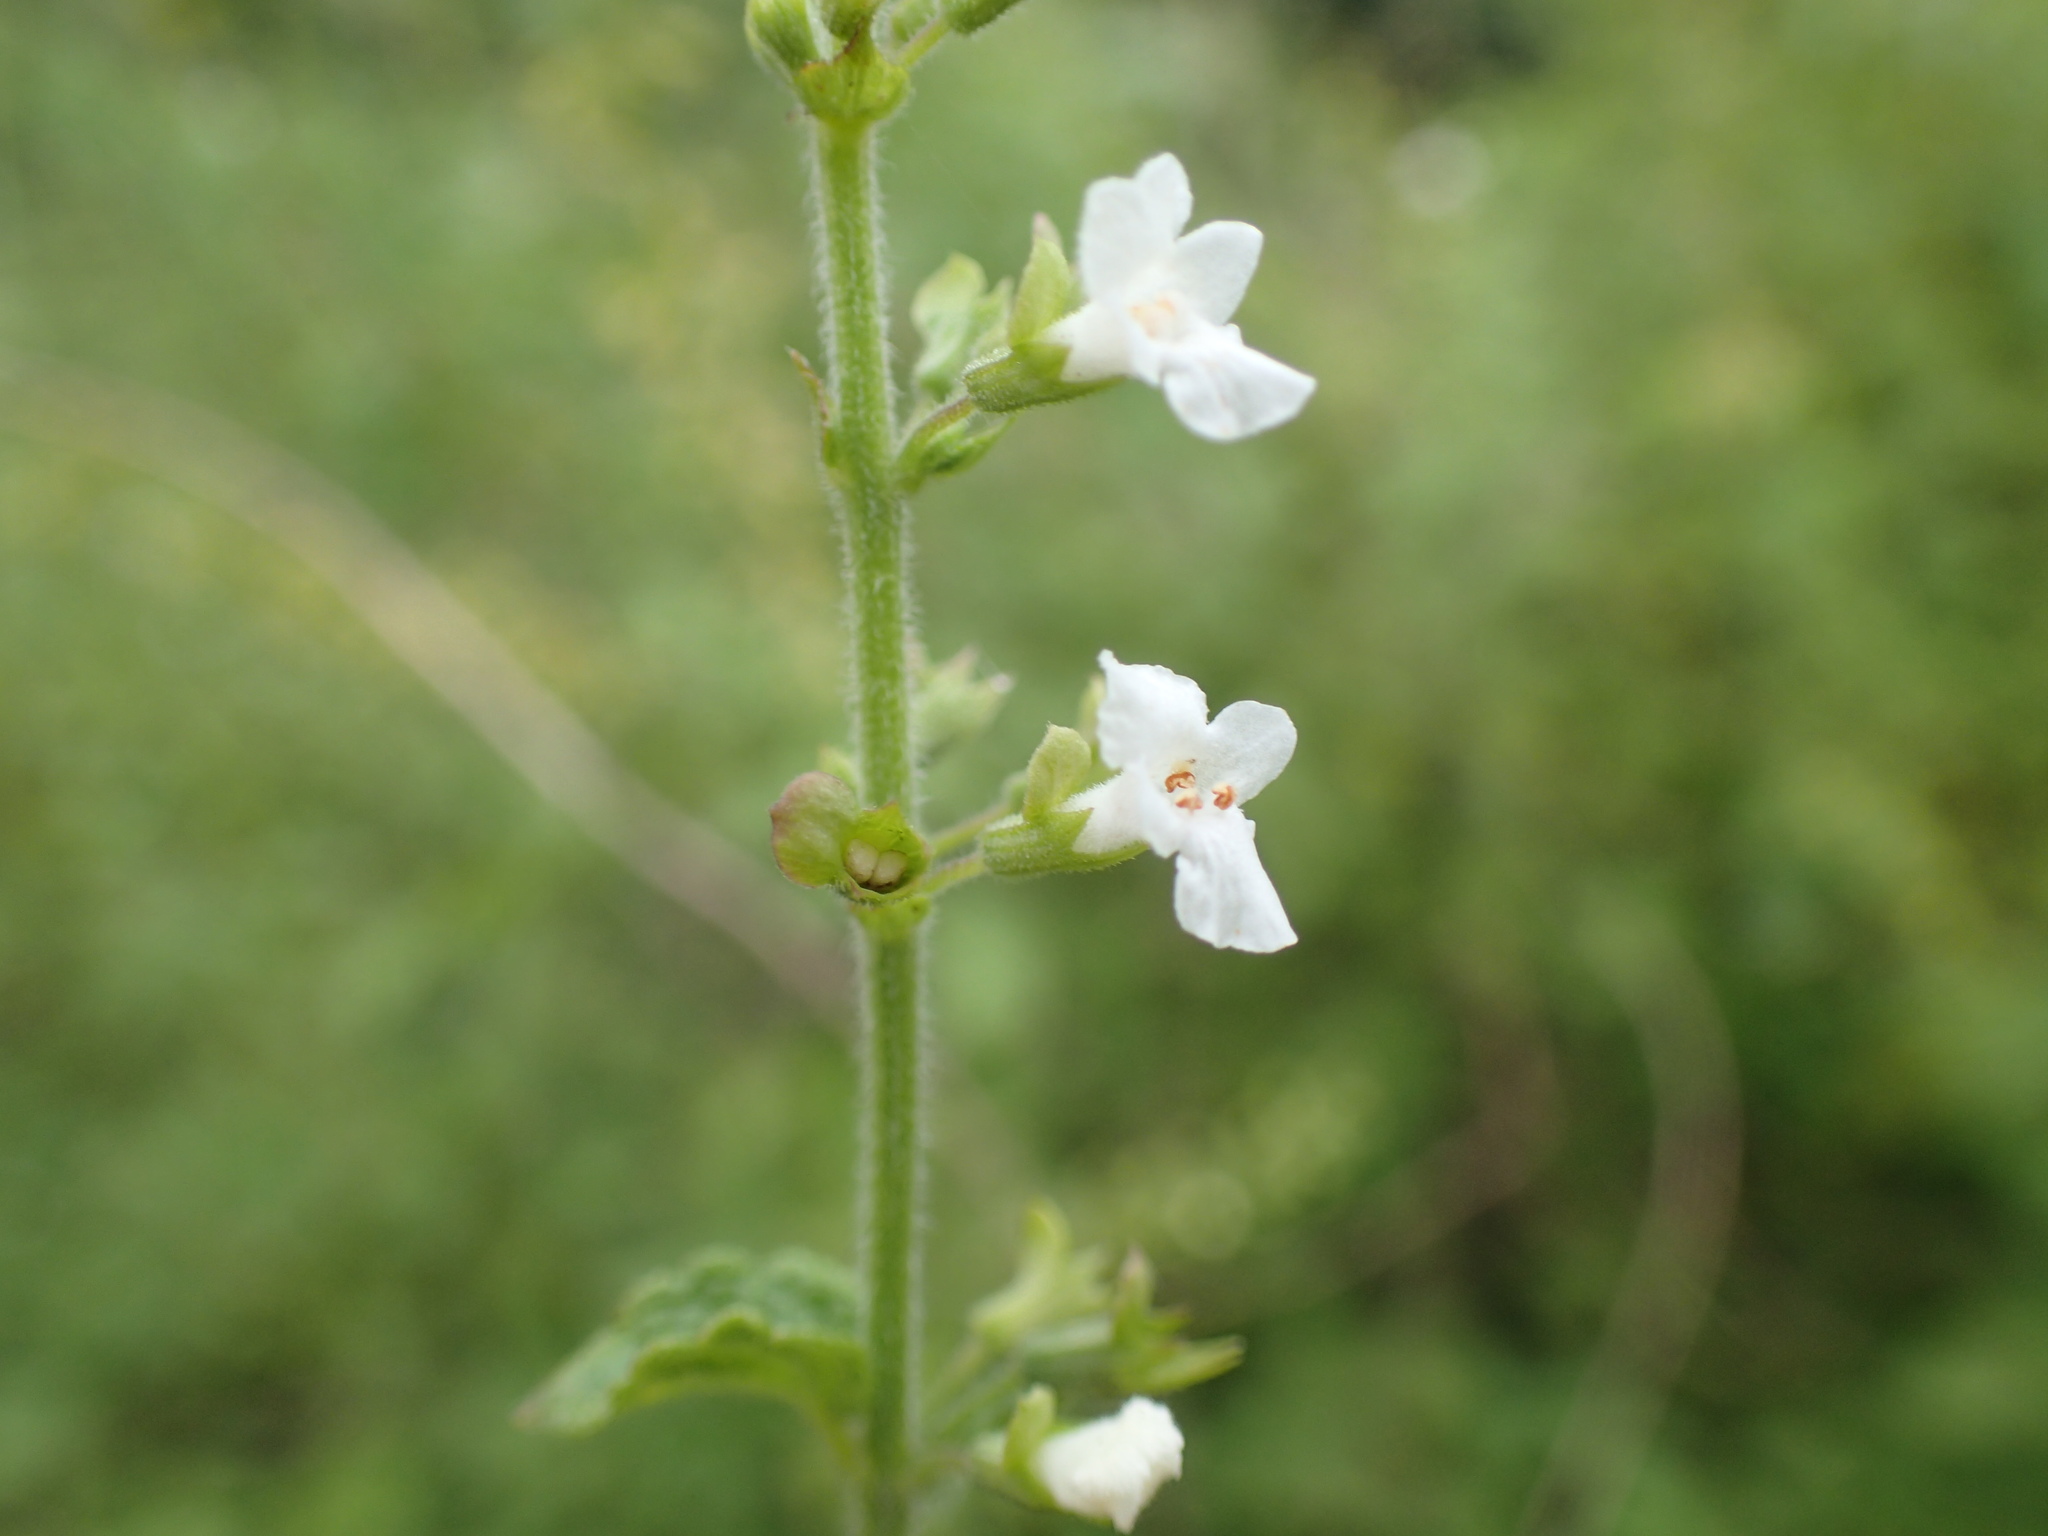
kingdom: Plantae
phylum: Tracheophyta
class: Magnoliopsida
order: Lamiales
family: Lamiaceae
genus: Endostemon
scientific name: Endostemon obtusifolius
